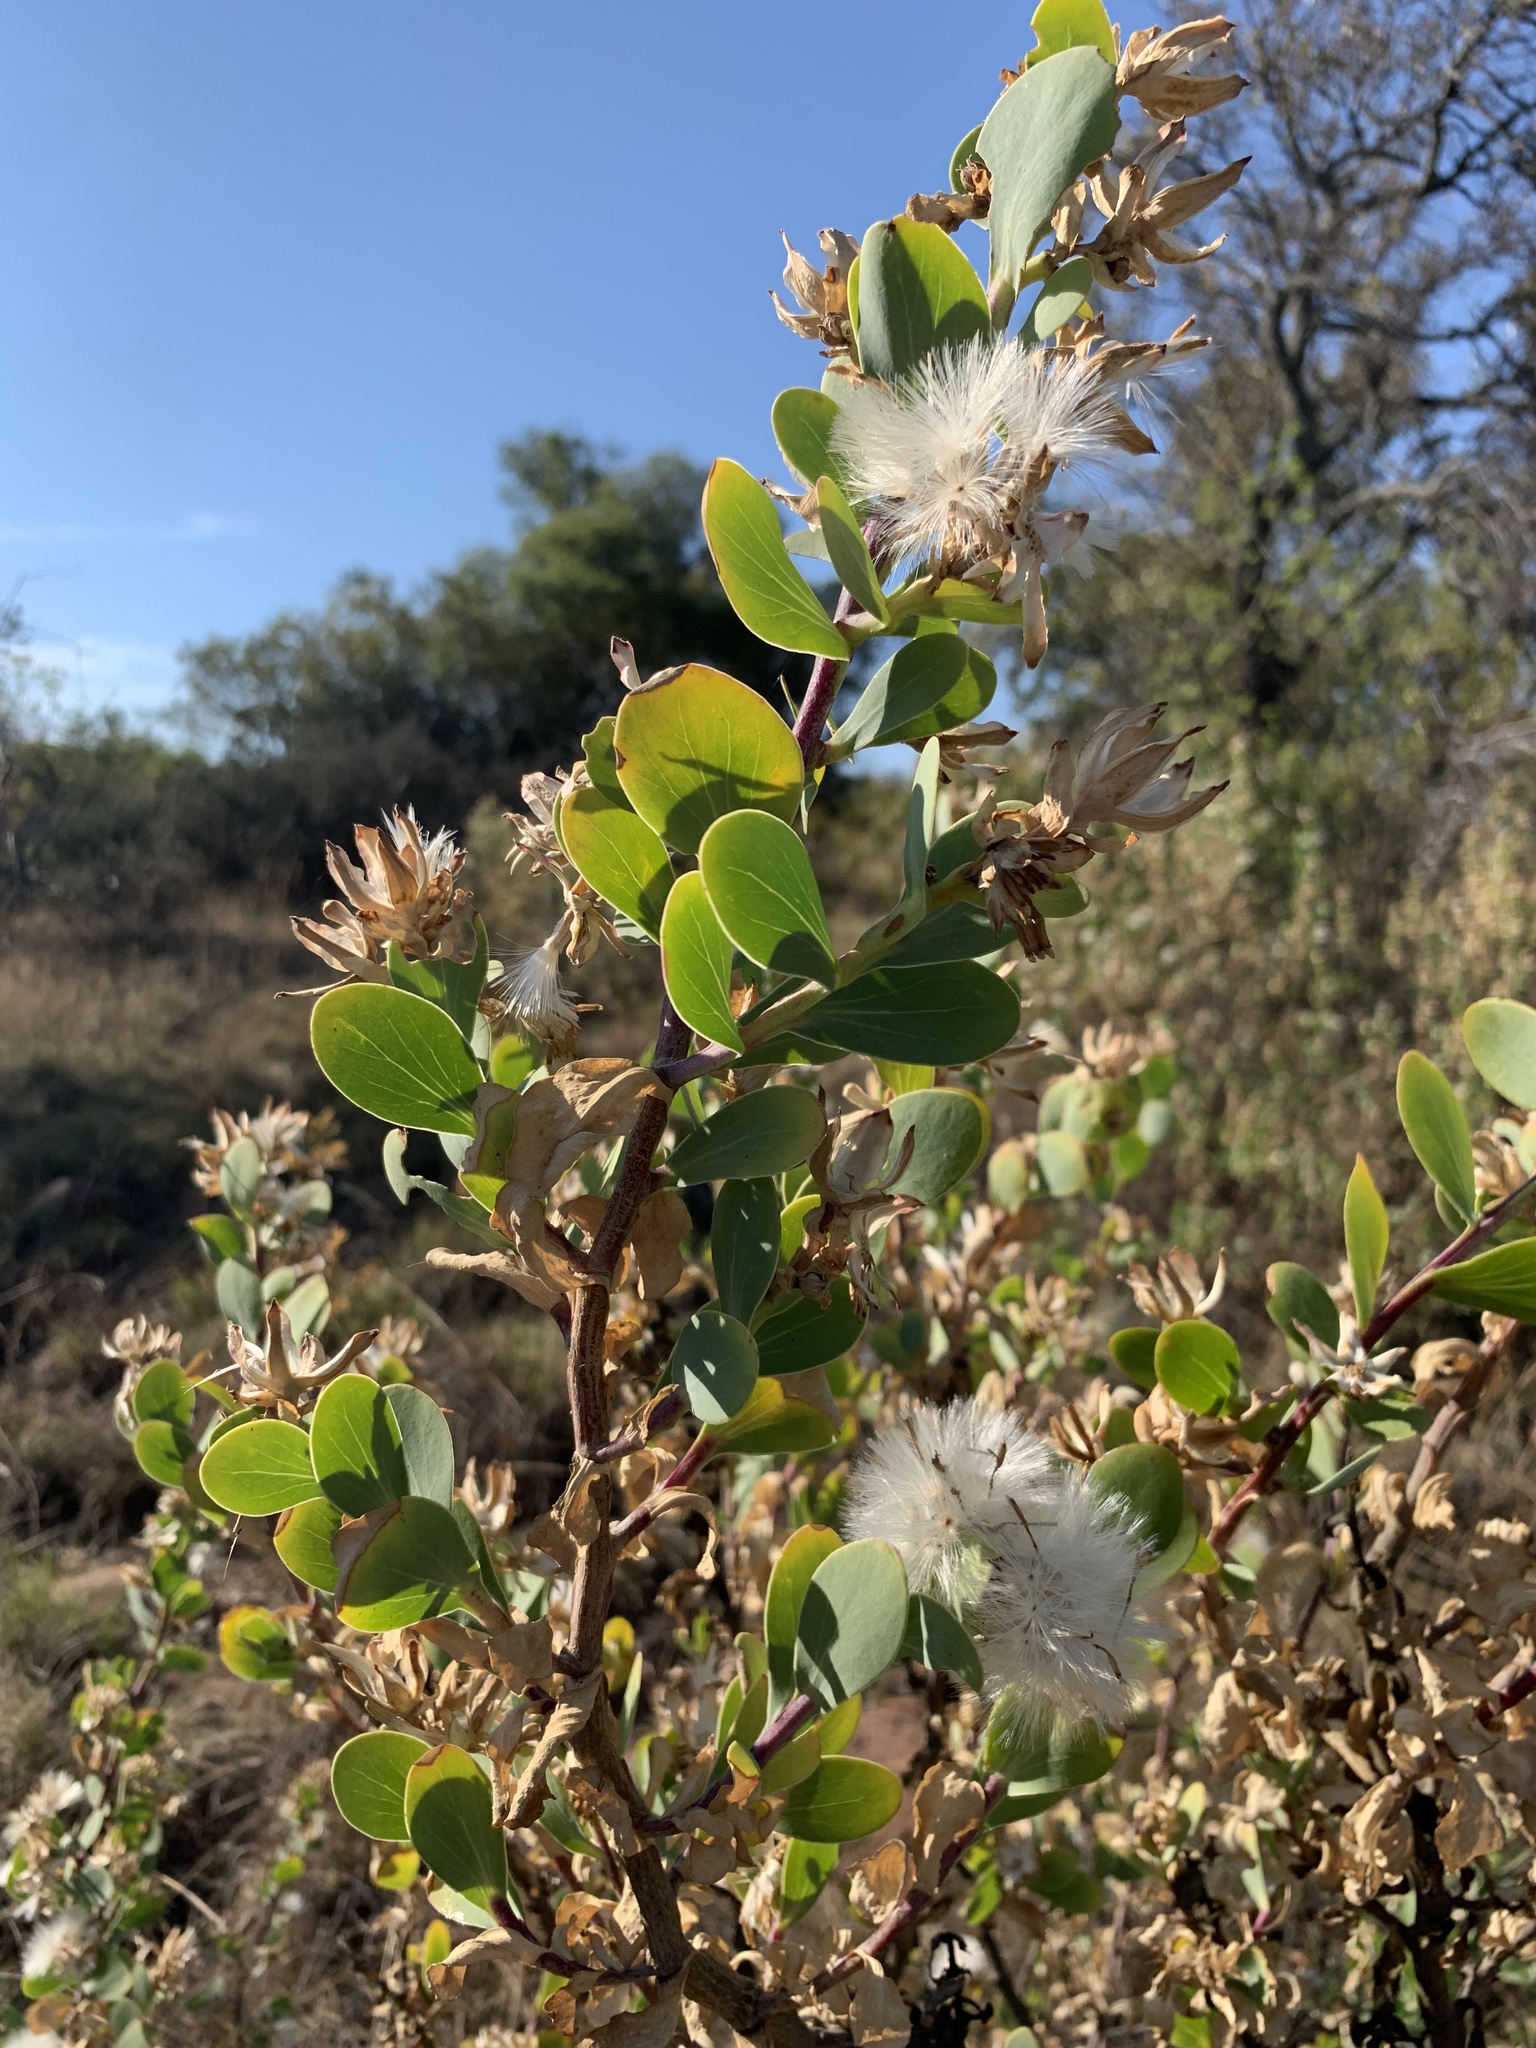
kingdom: Plantae
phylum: Tracheophyta
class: Magnoliopsida
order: Asterales
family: Asteraceae
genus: Lopholaena
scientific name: Lopholaena coriifolia
